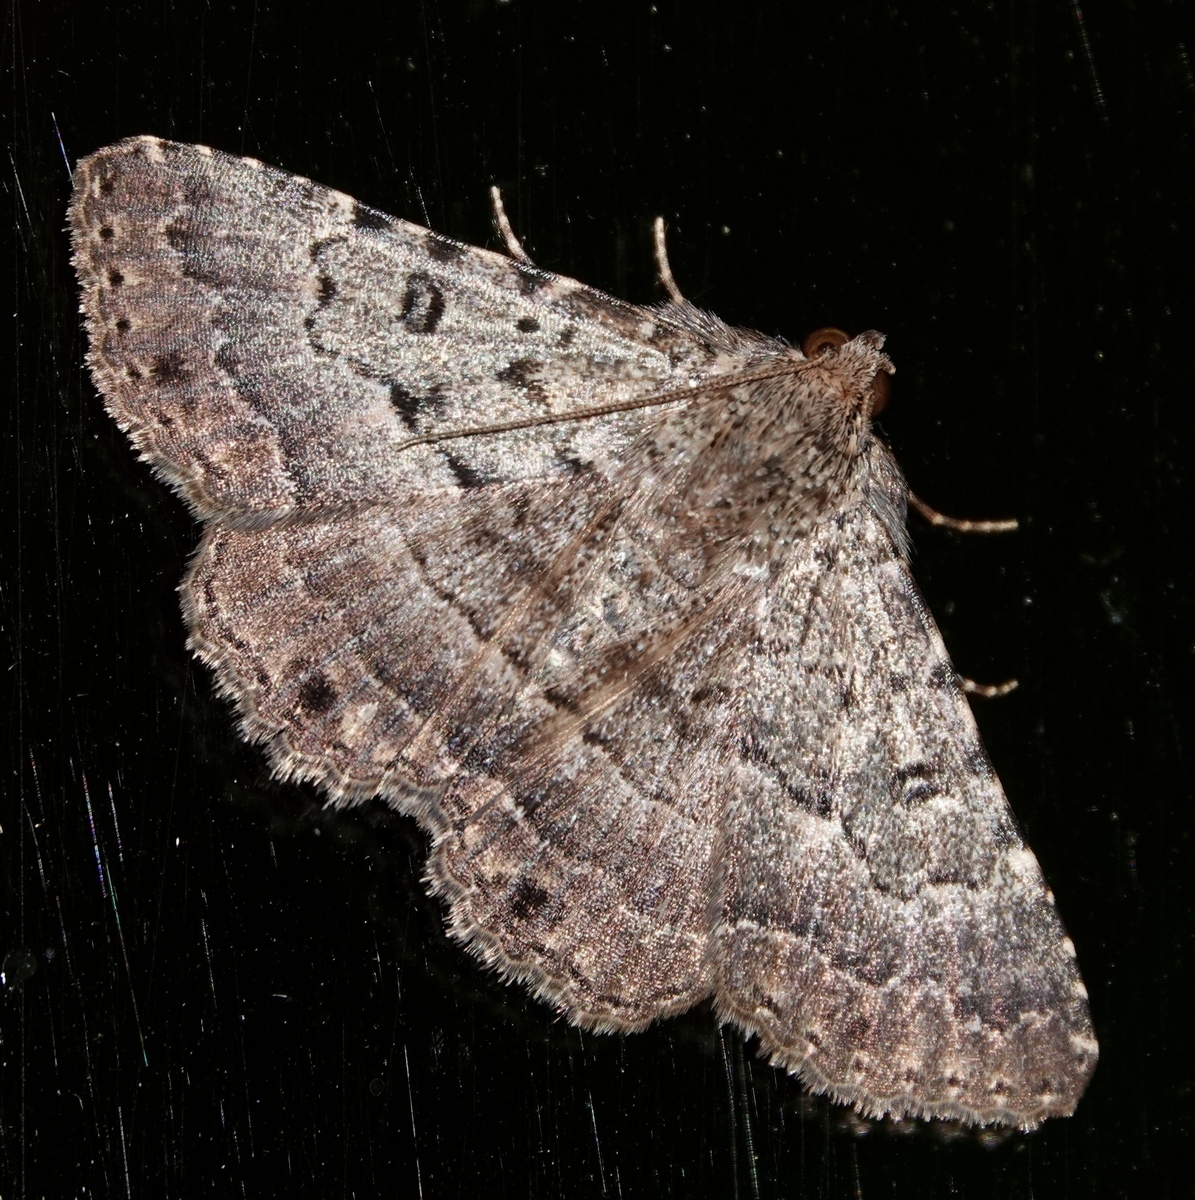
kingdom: Animalia
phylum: Arthropoda
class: Insecta
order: Lepidoptera
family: Erebidae
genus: Diatenes
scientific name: Diatenes aglossoides
